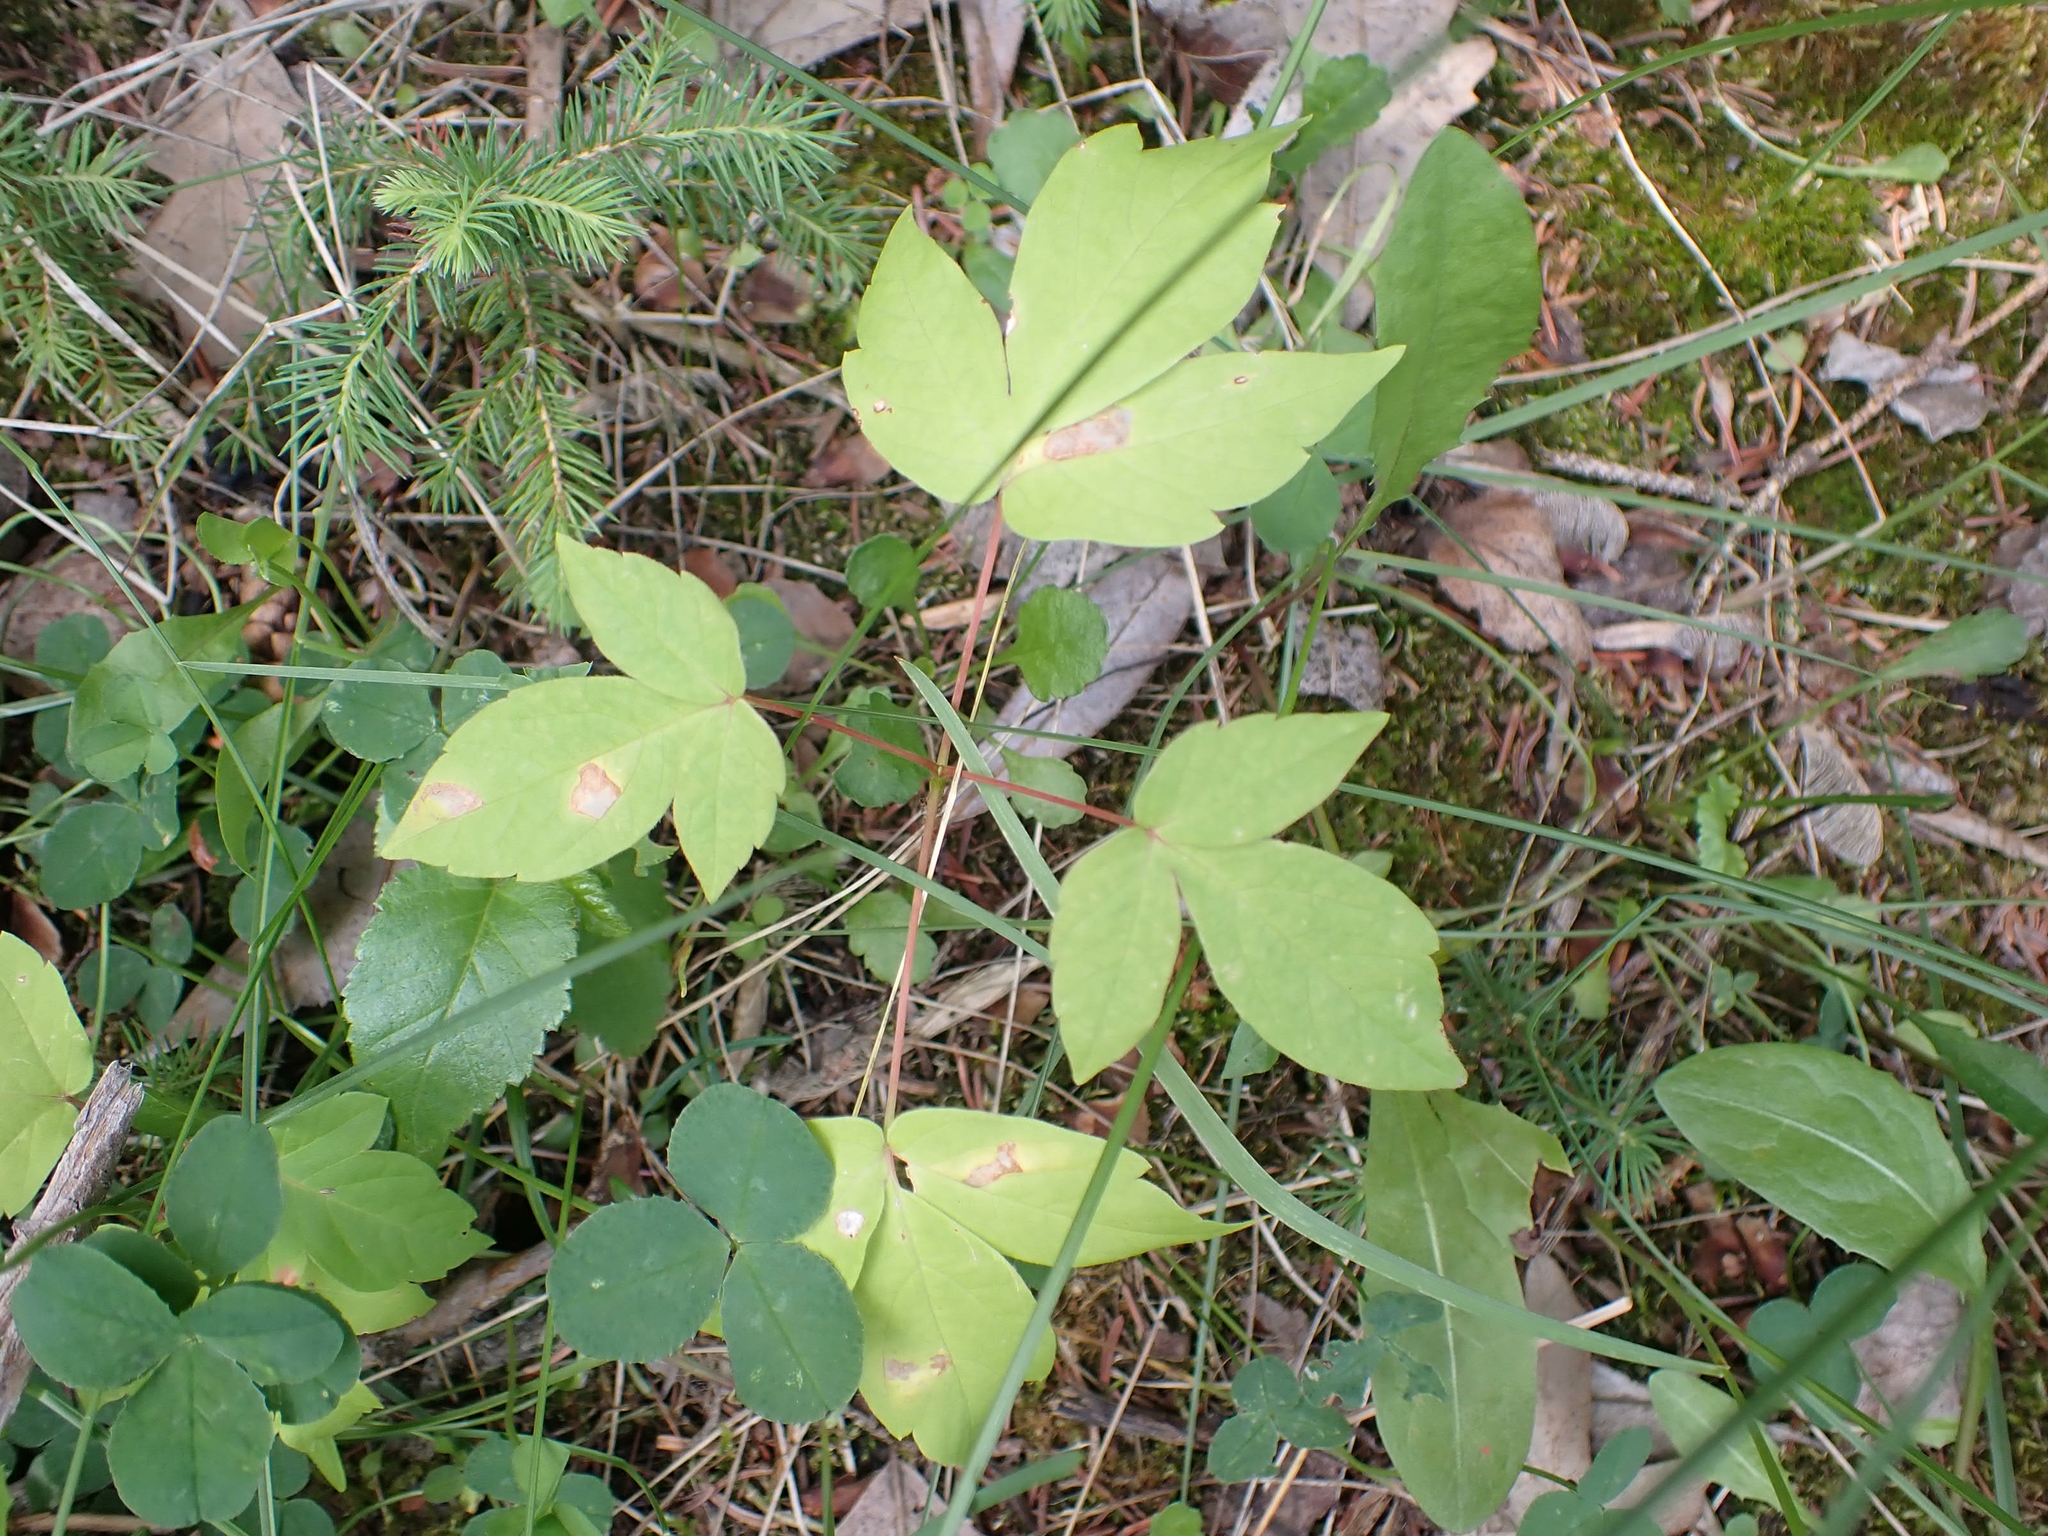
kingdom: Plantae
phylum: Tracheophyta
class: Magnoliopsida
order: Sapindales
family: Sapindaceae
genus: Acer
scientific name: Acer negundo
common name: Ashleaf maple
